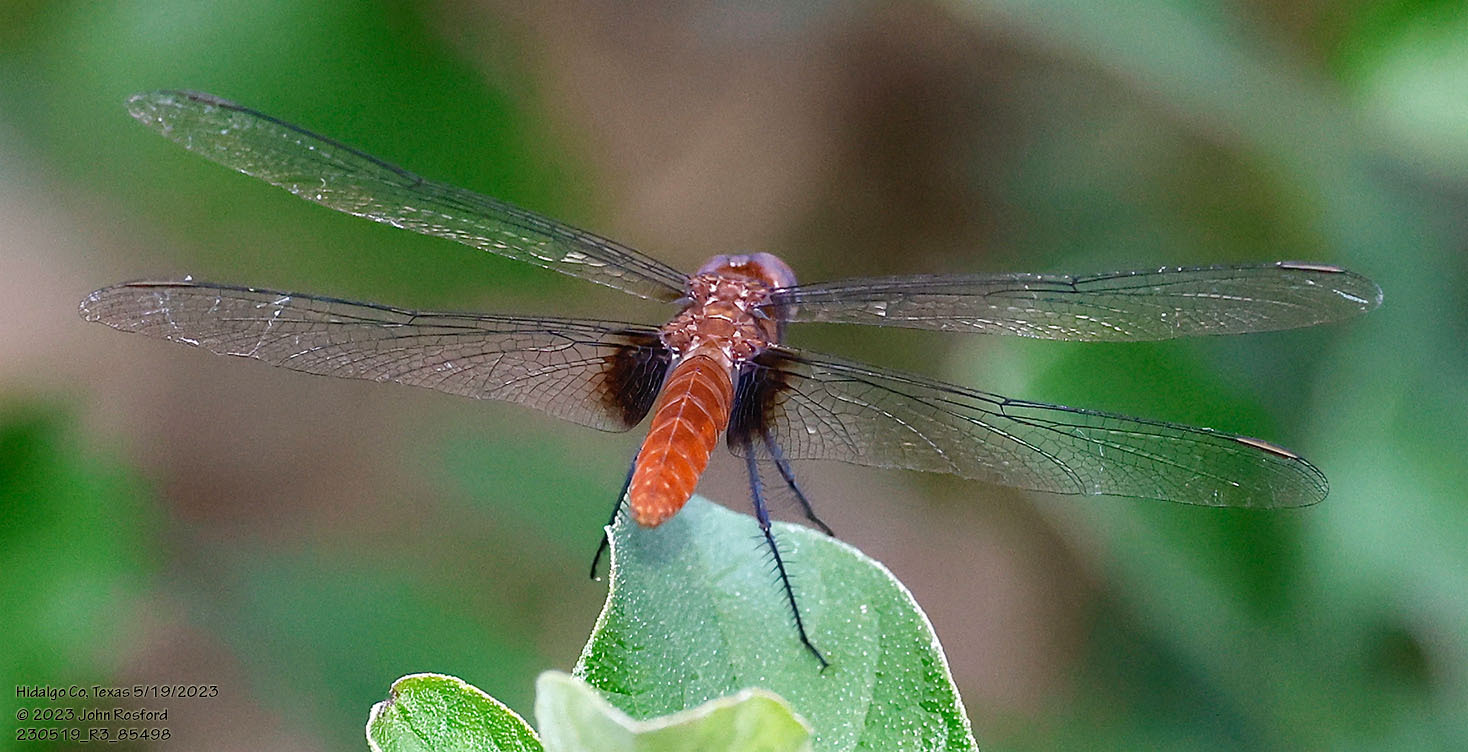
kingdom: Animalia
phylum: Arthropoda
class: Insecta
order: Odonata
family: Libellulidae
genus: Planiplax
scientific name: Planiplax sanguiniventris
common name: Mexican scarlet-tail
